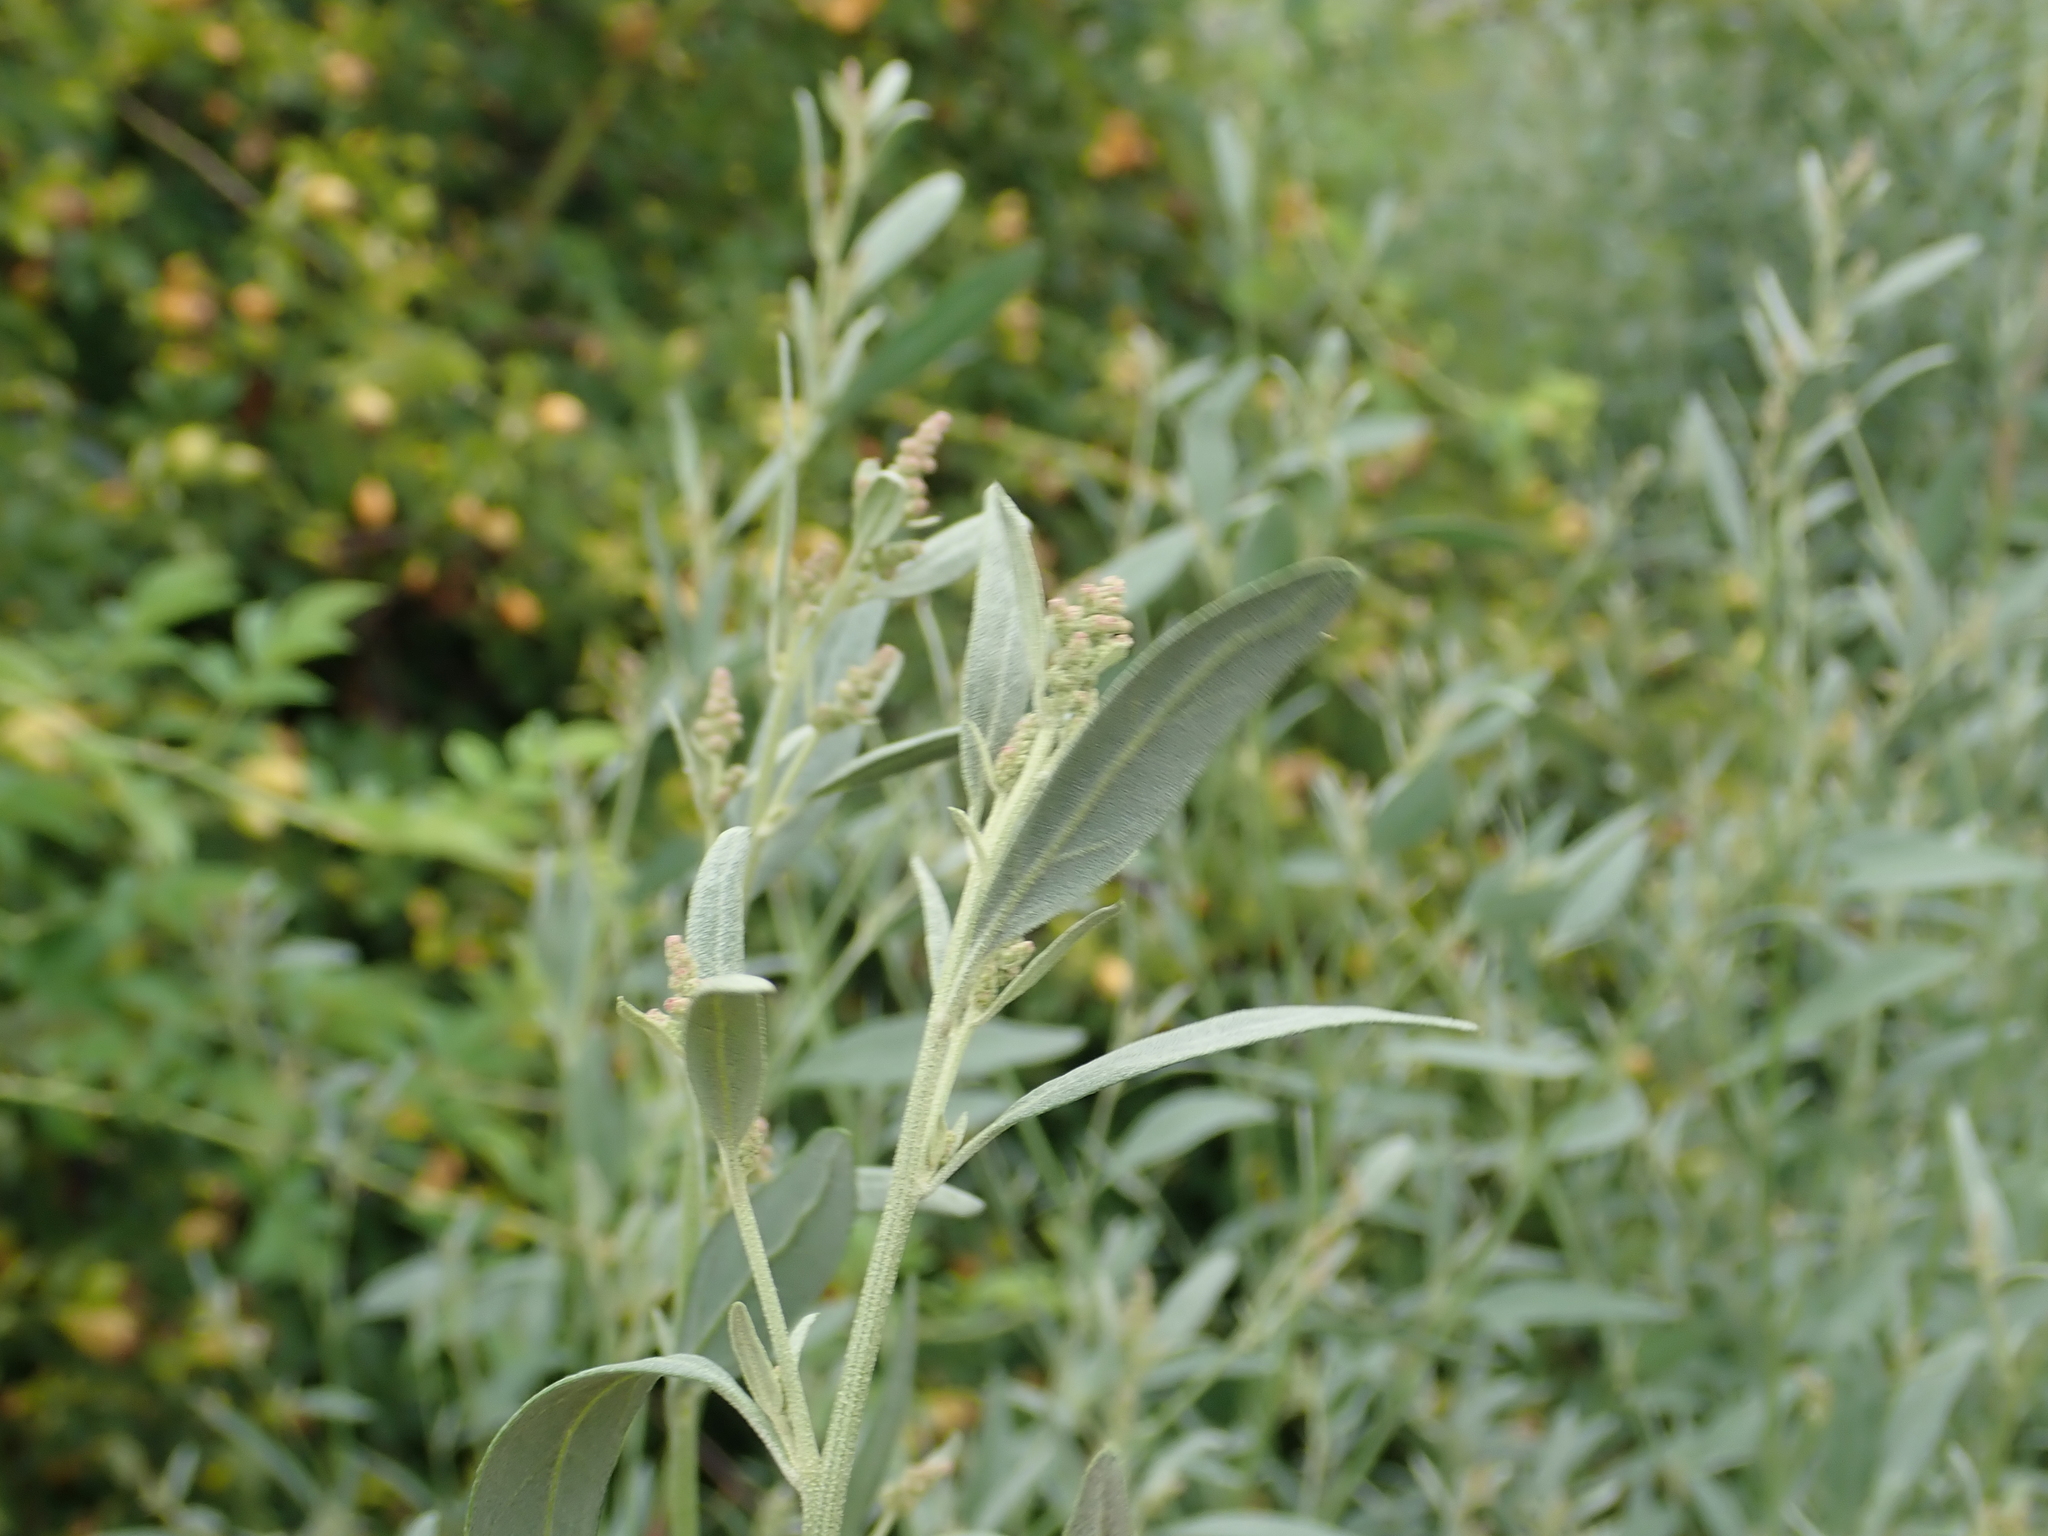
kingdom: Plantae
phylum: Tracheophyta
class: Magnoliopsida
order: Caryophyllales
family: Amaranthaceae
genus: Atriplex
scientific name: Atriplex oblongifolia
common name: Oblongleaf orache
